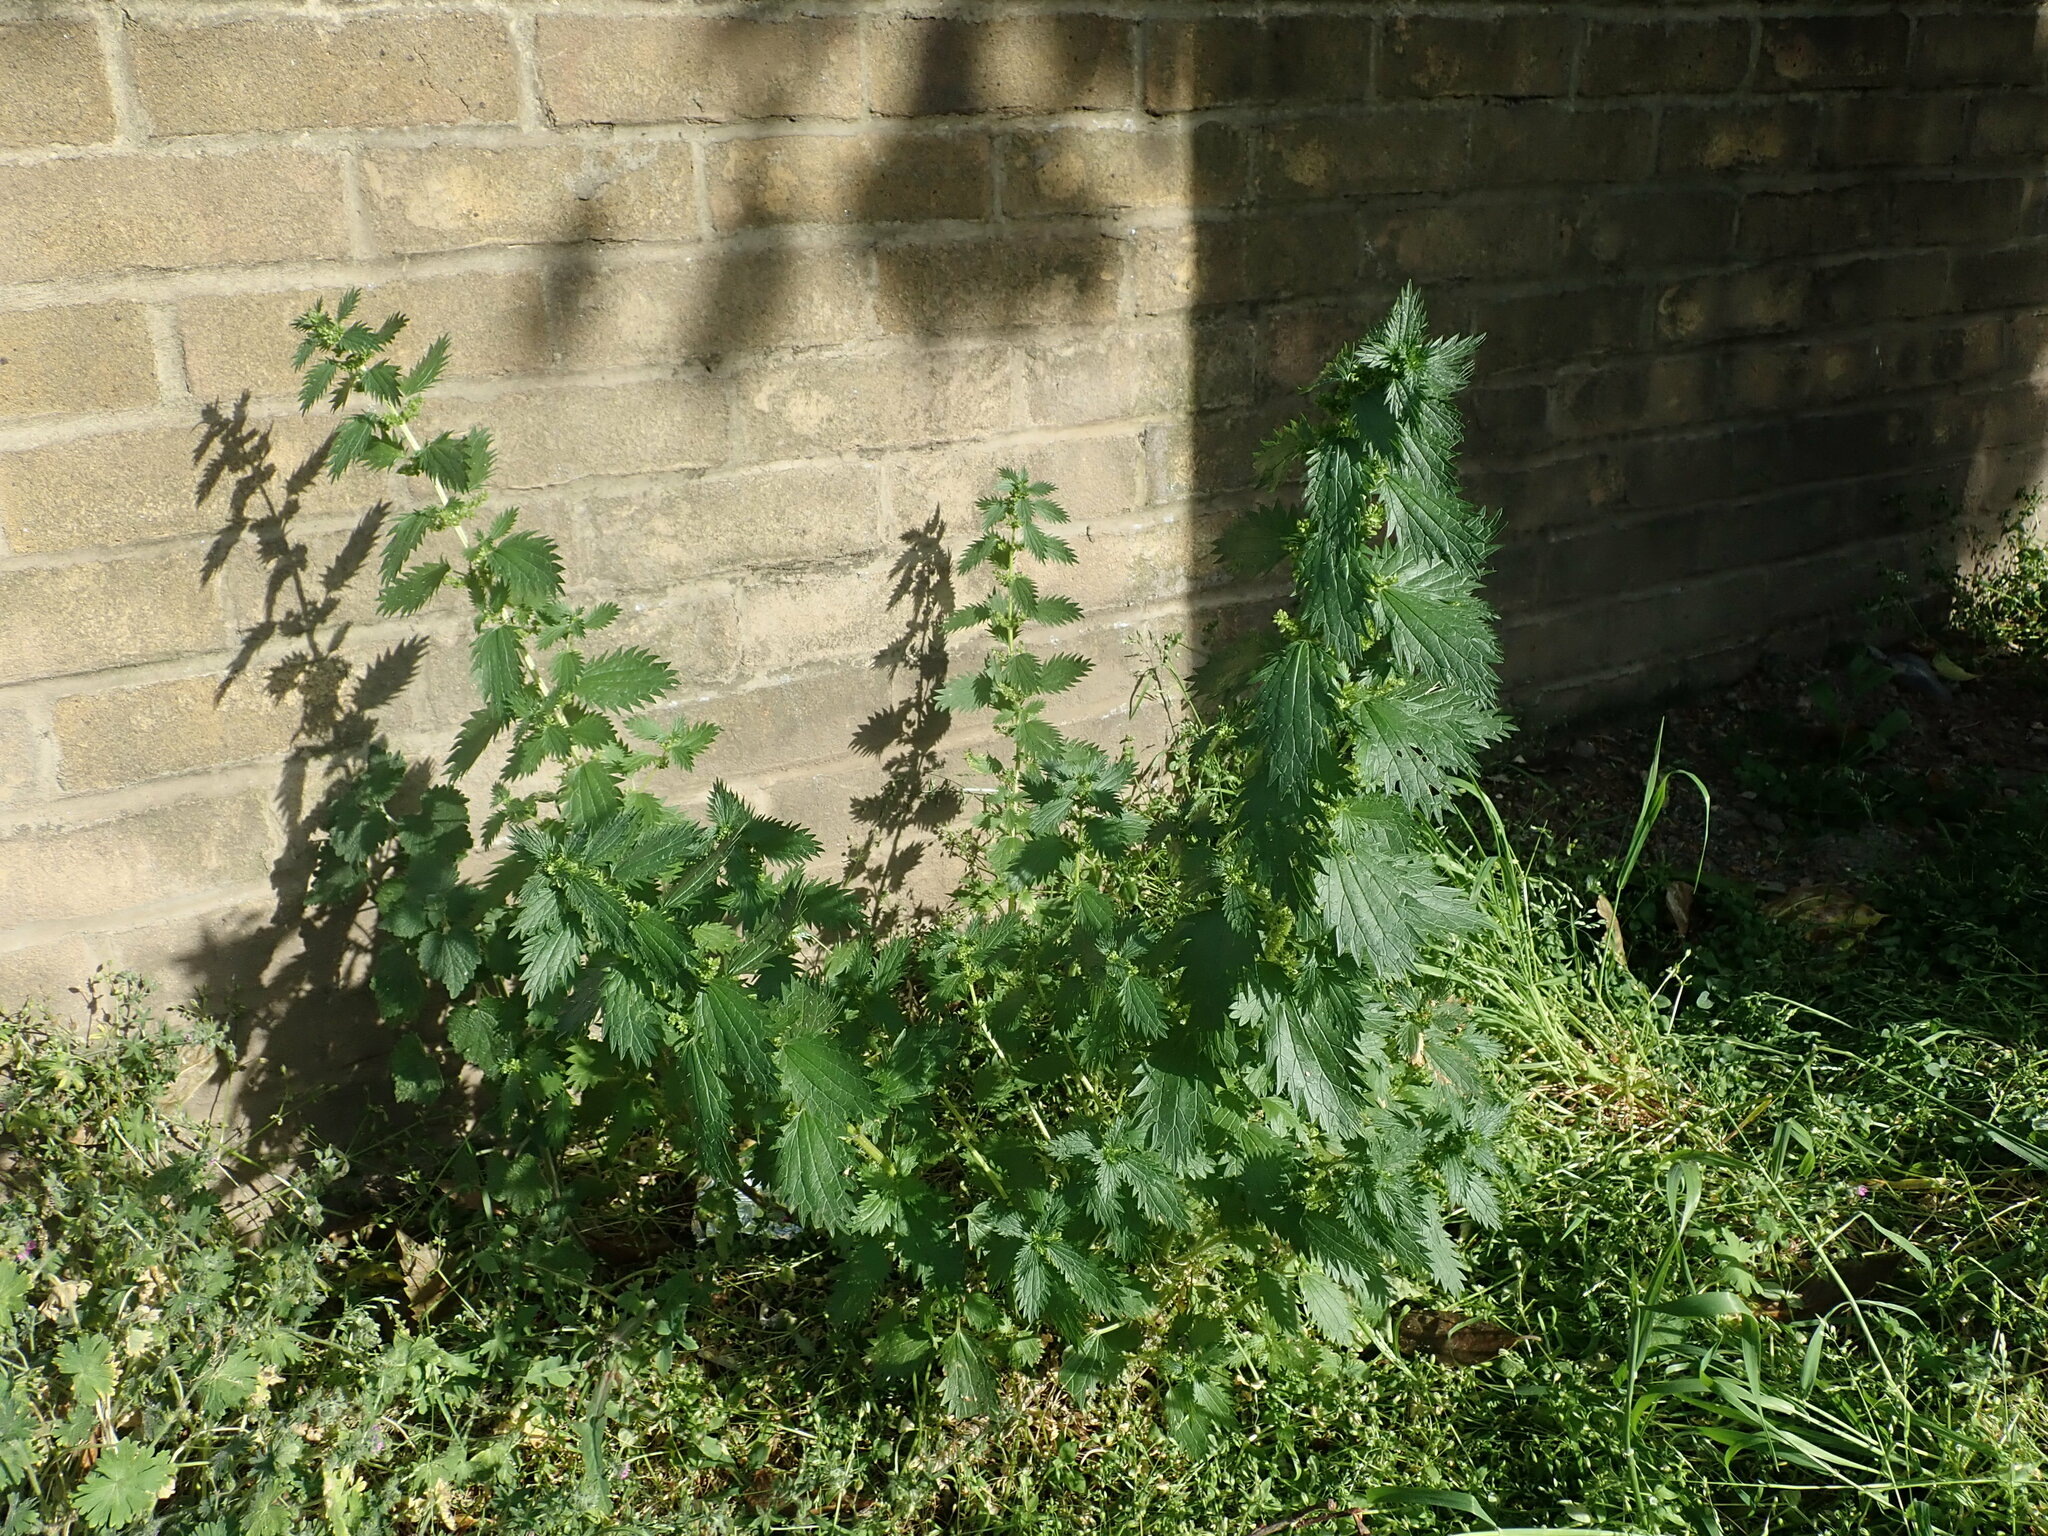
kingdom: Plantae
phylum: Tracheophyta
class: Magnoliopsida
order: Rosales
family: Urticaceae
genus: Urtica
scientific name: Urtica urens
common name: Dwarf nettle
